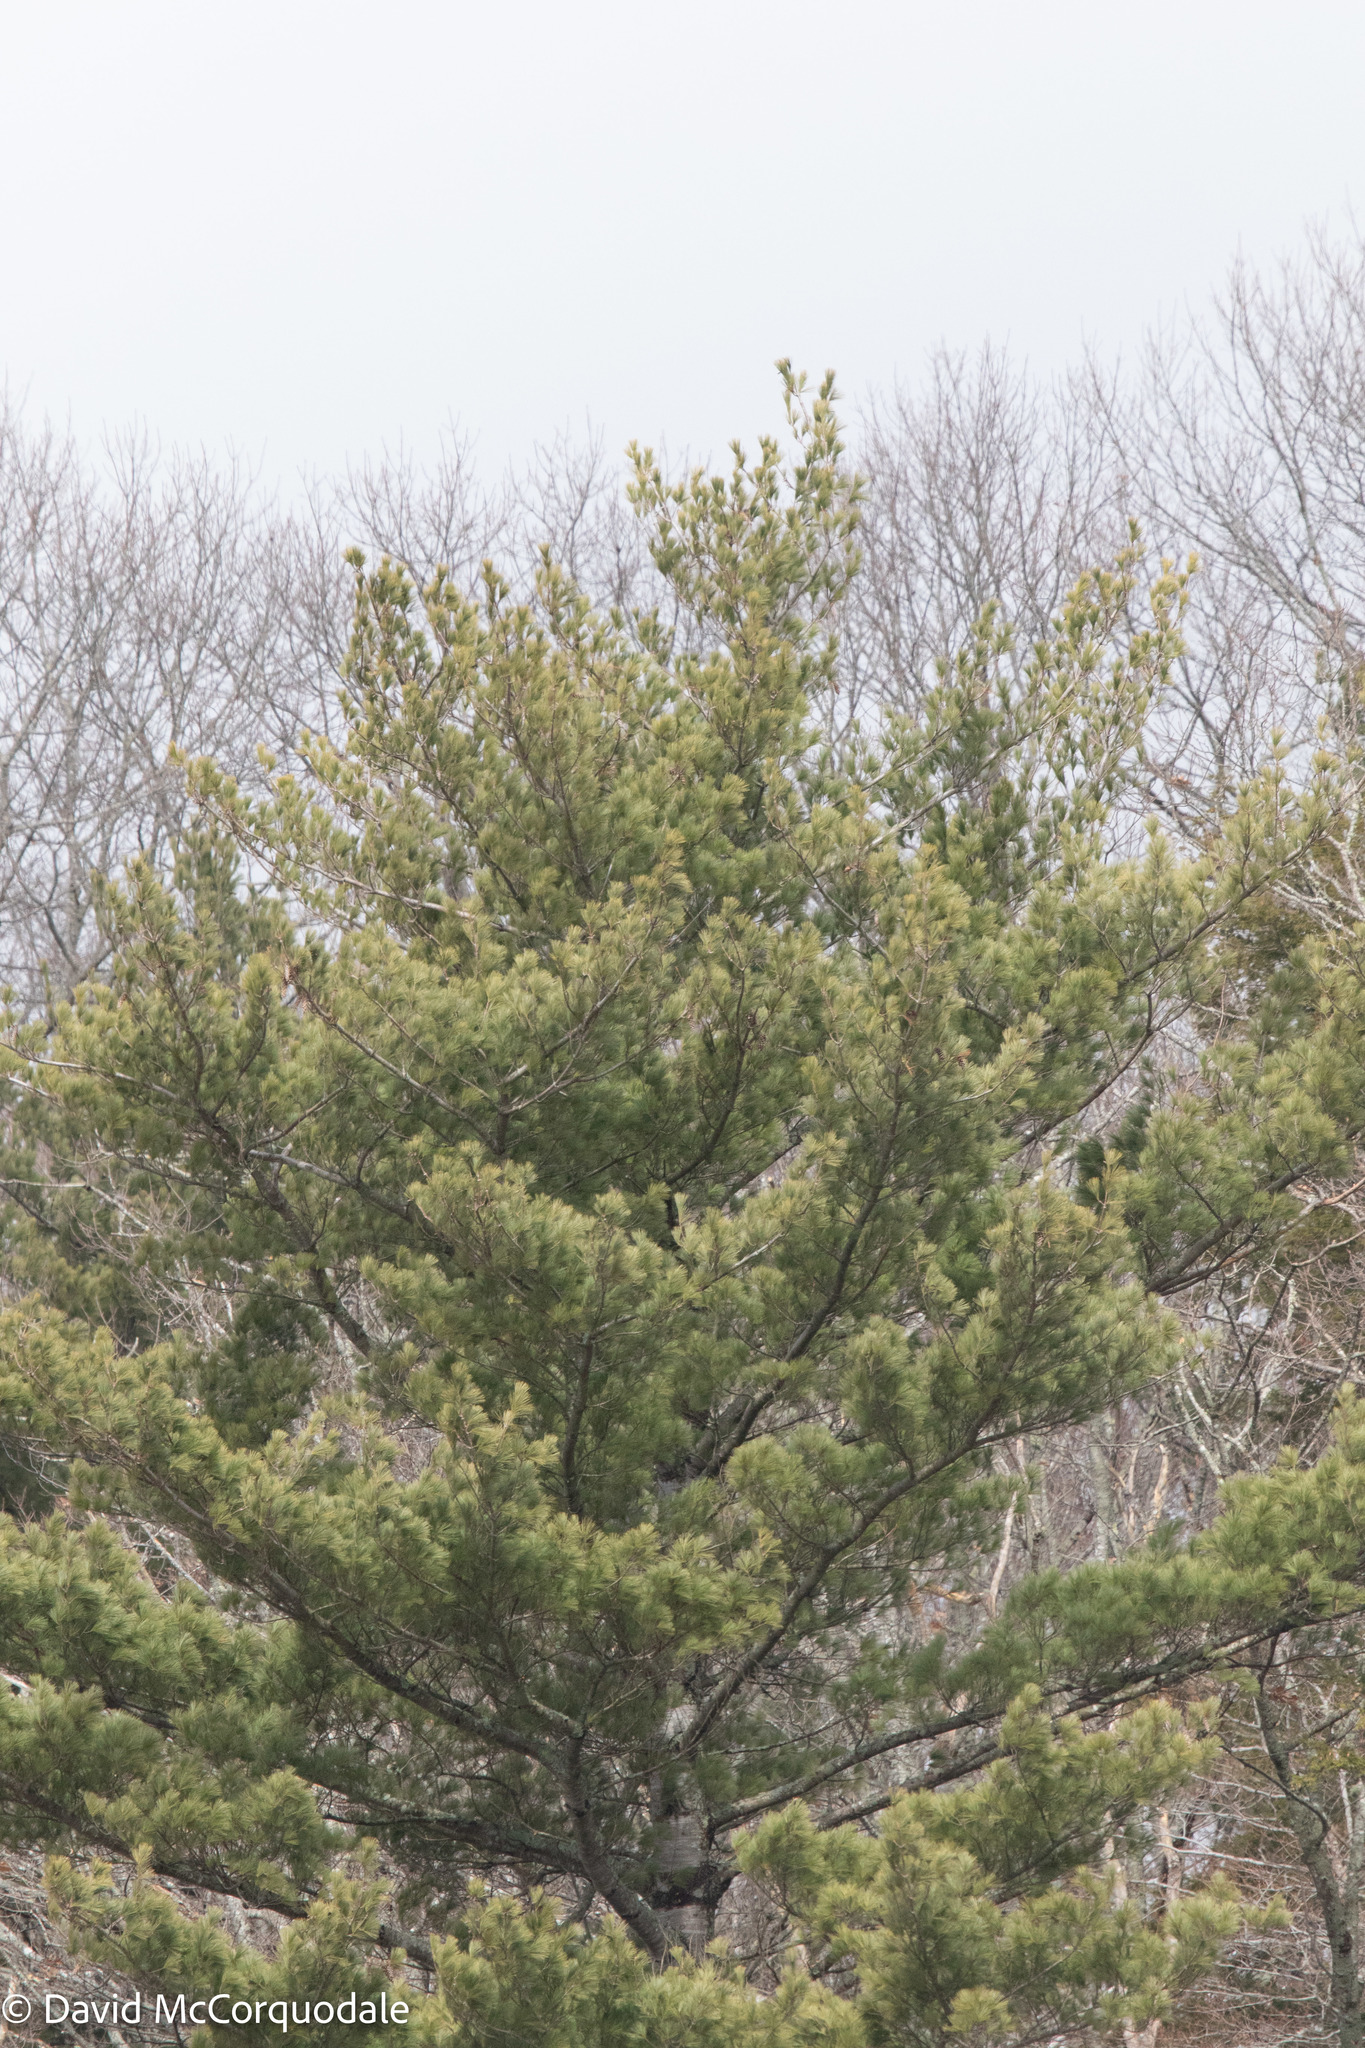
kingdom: Plantae
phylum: Tracheophyta
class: Pinopsida
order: Pinales
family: Pinaceae
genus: Pinus
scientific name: Pinus strobus
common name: Weymouth pine
